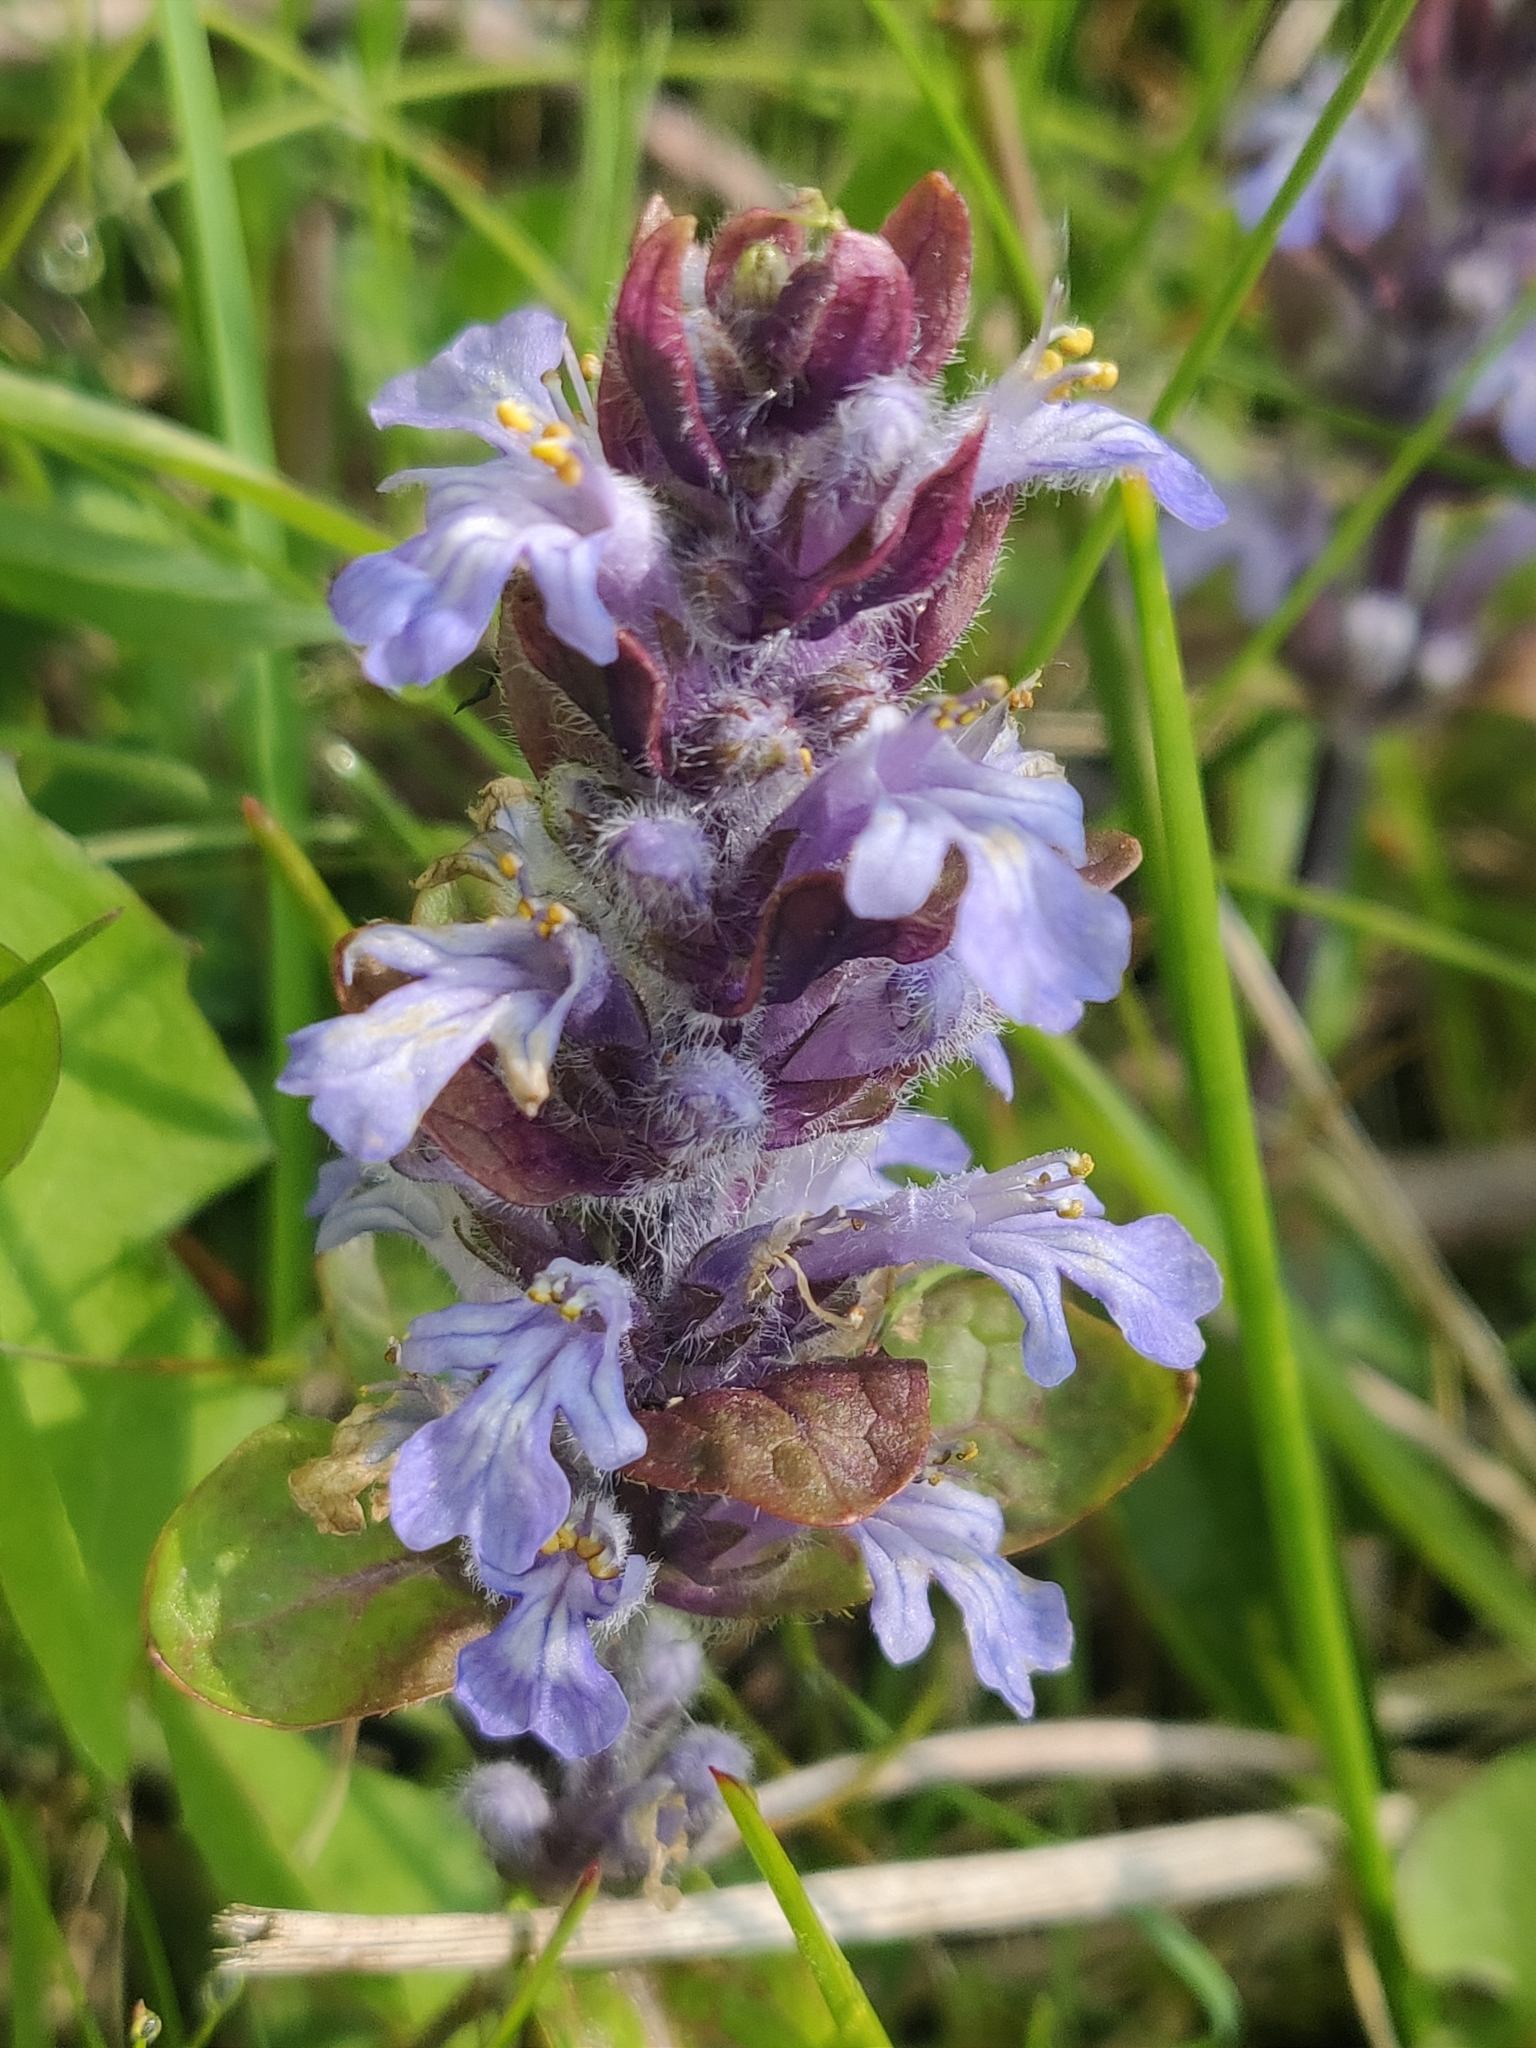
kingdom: Plantae
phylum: Tracheophyta
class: Magnoliopsida
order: Lamiales
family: Lamiaceae
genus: Ajuga
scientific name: Ajuga reptans
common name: Bugle
